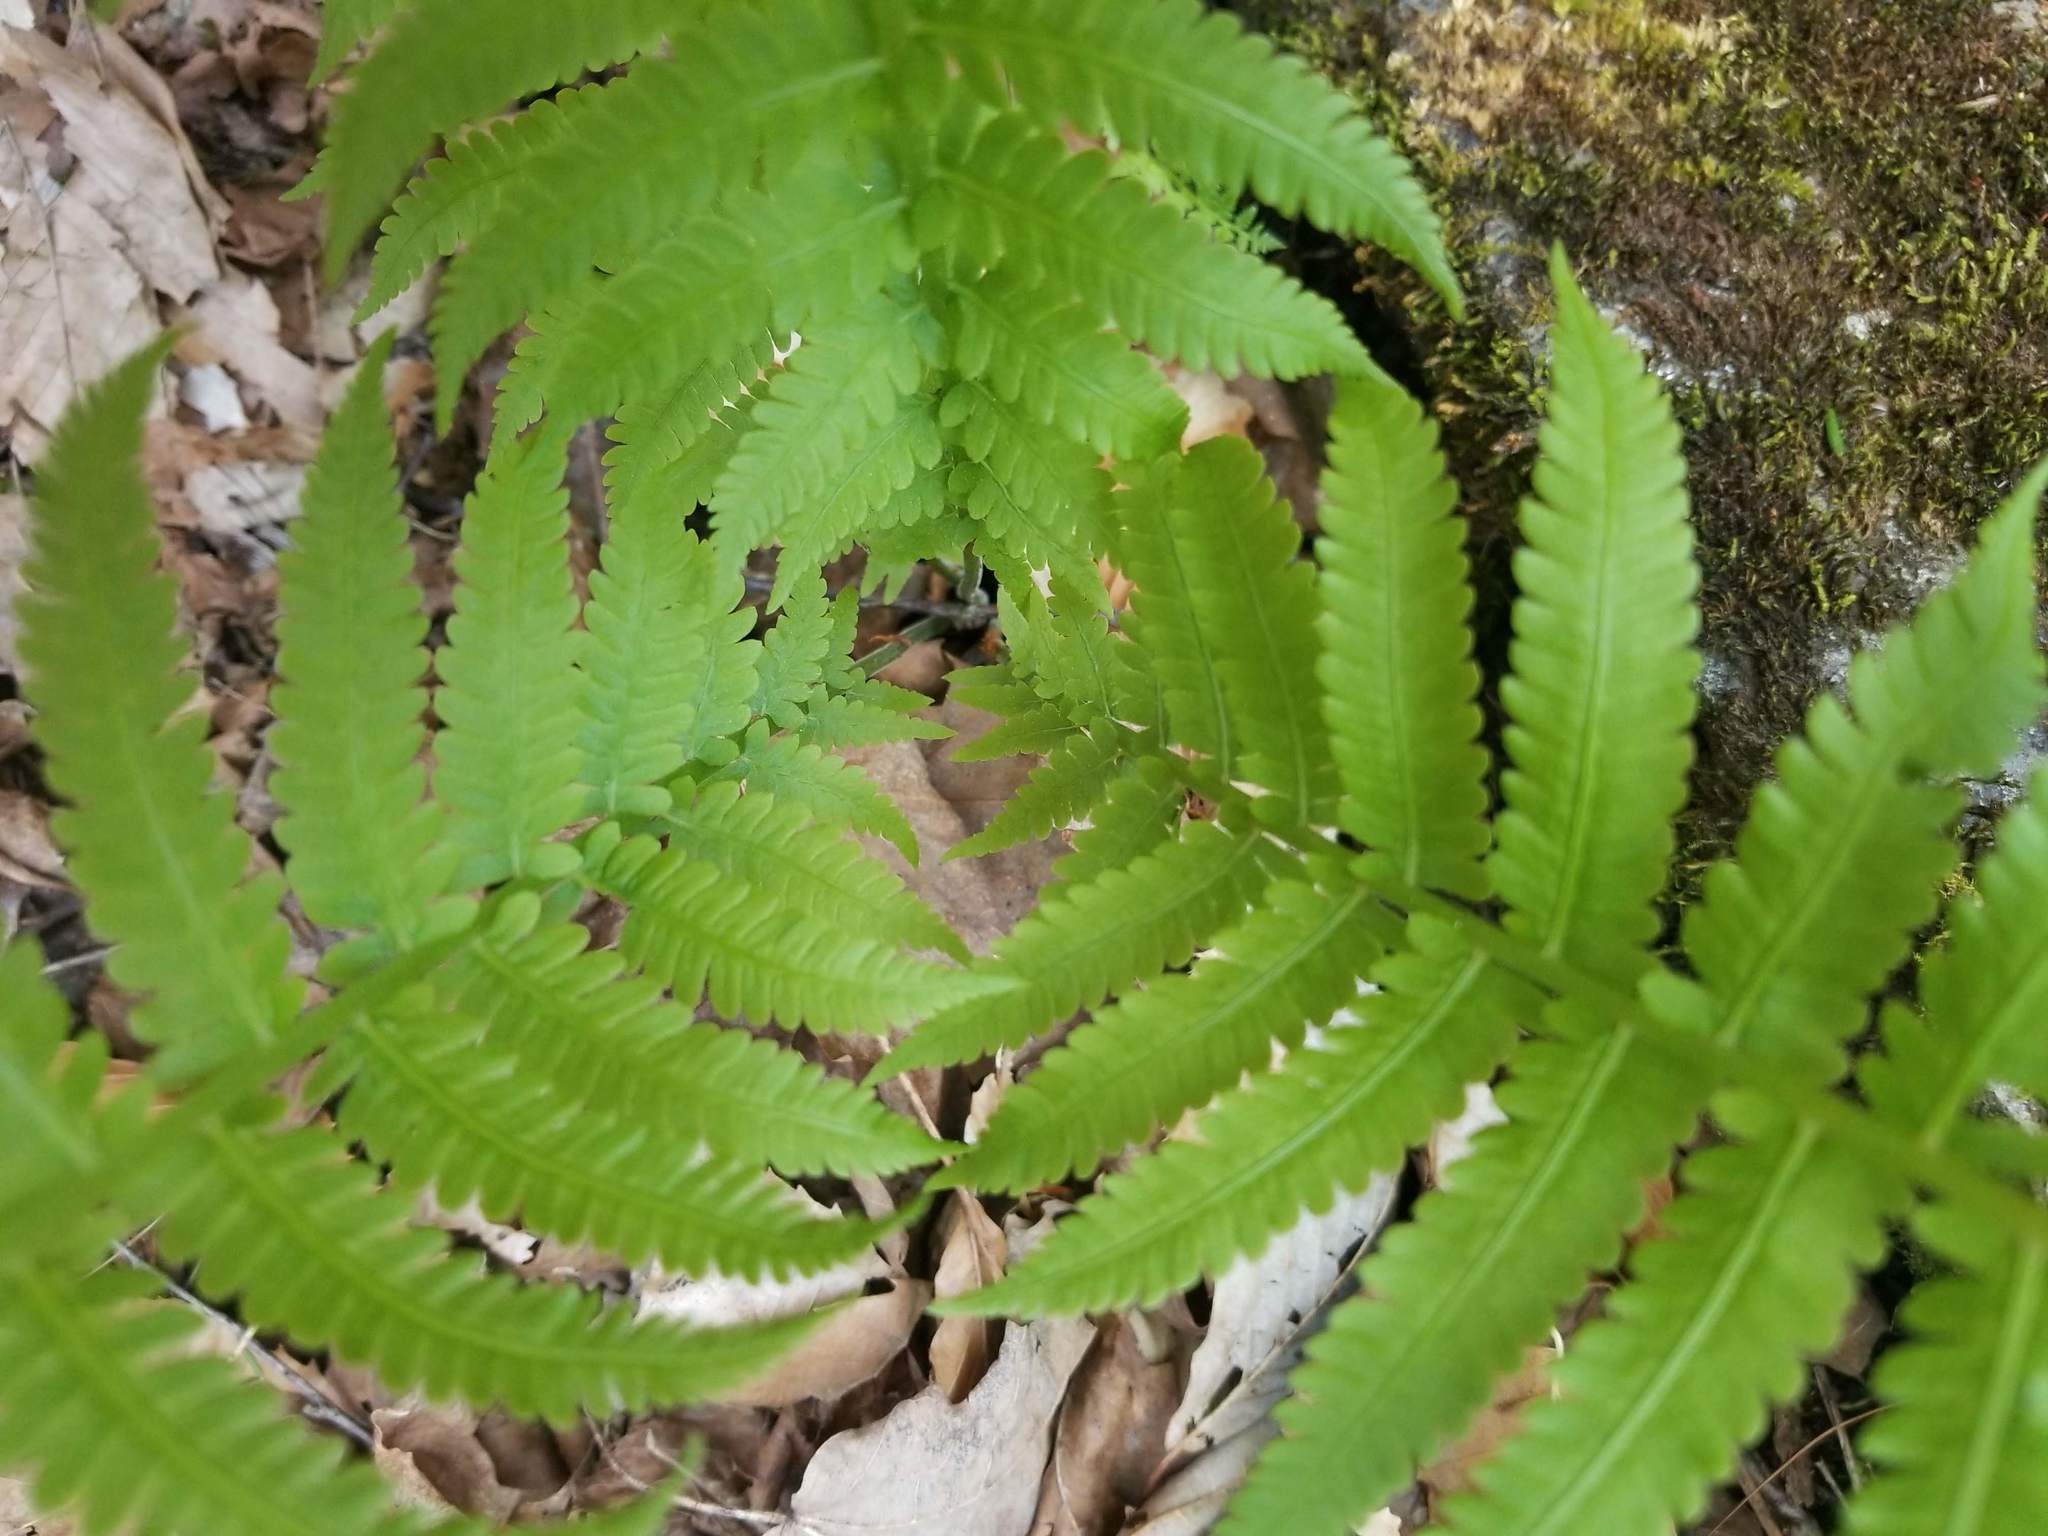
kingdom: Plantae
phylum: Tracheophyta
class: Polypodiopsida
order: Polypodiales
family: Onocleaceae
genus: Matteuccia
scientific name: Matteuccia struthiopteris
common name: Ostrich fern
